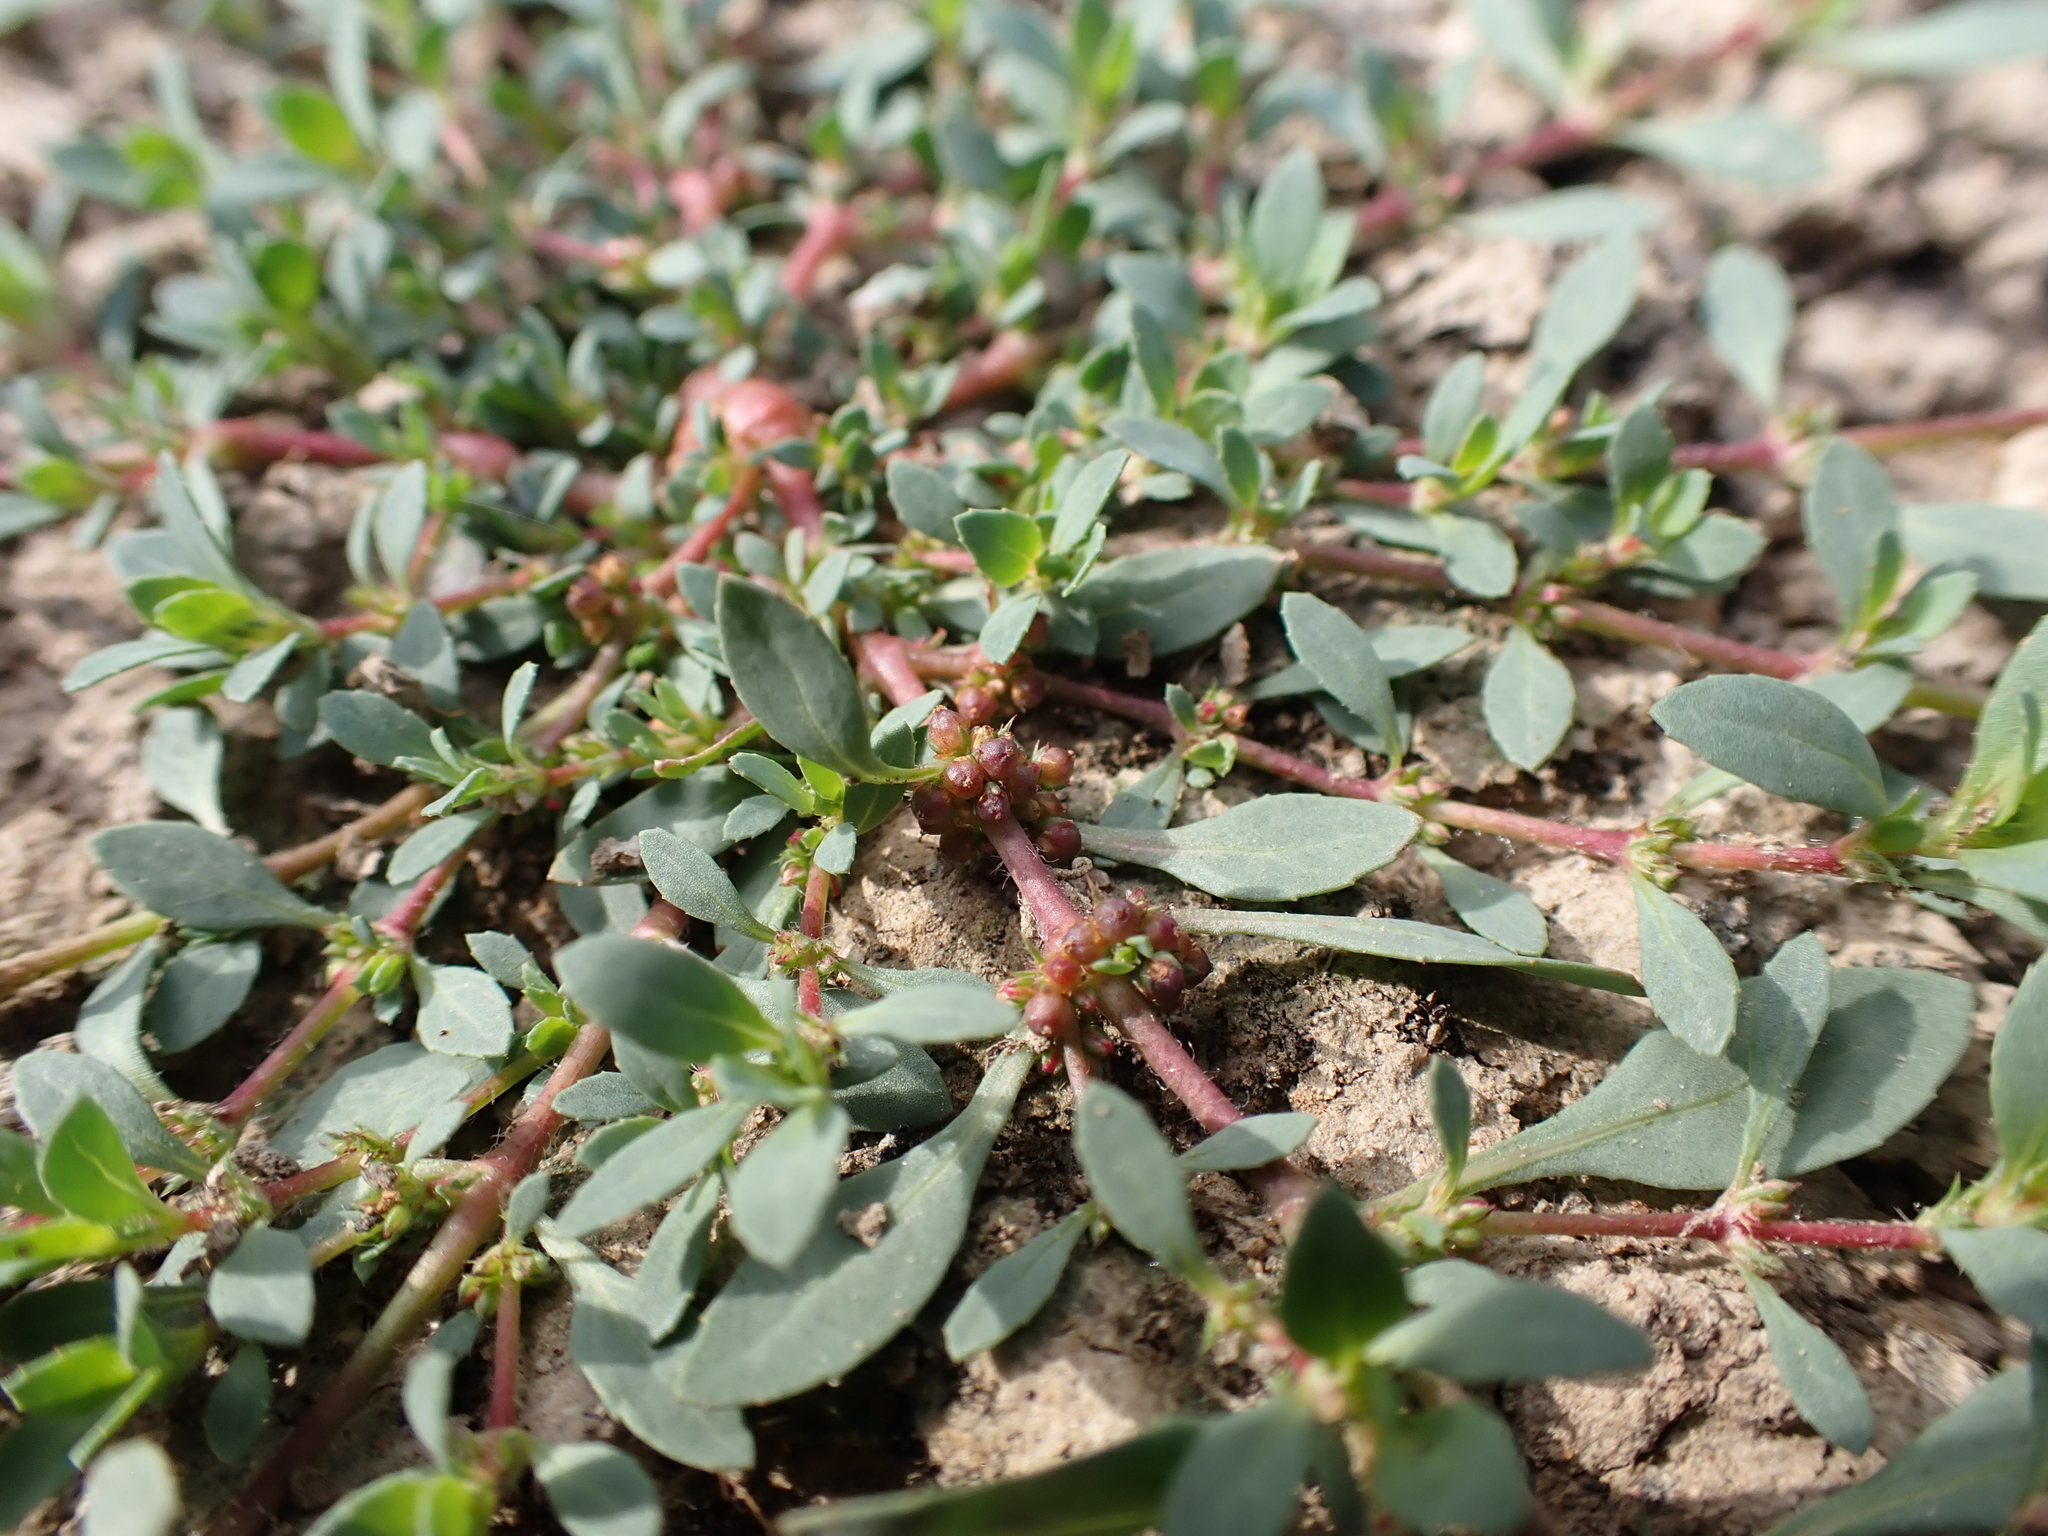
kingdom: Plantae
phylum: Tracheophyta
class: Magnoliopsida
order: Malpighiales
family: Elatinaceae
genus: Bergia
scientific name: Bergia trimera
